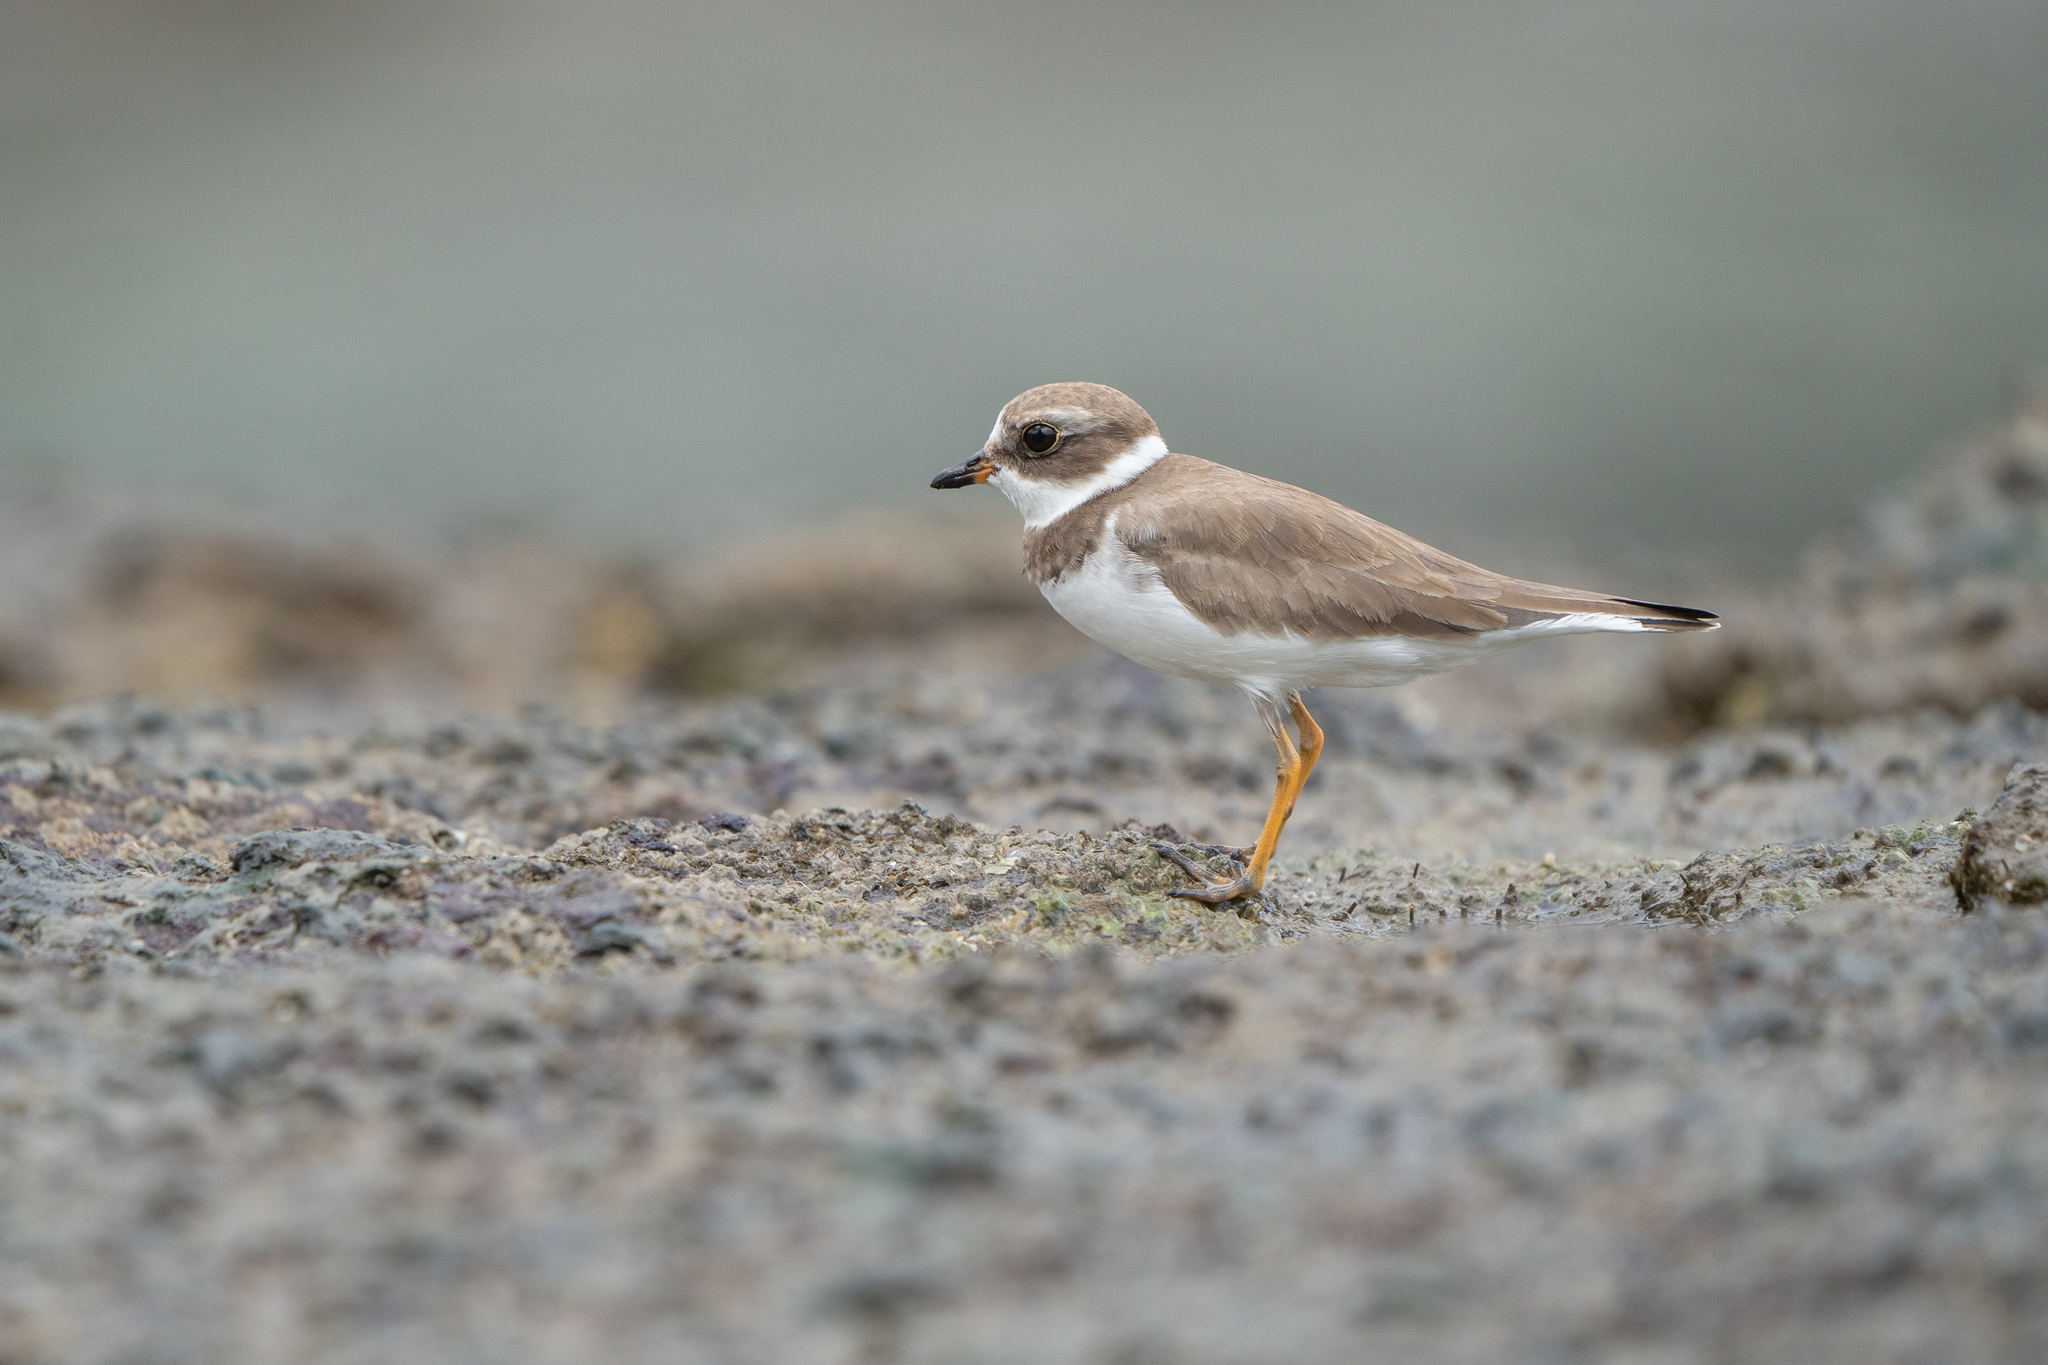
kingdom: Animalia
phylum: Chordata
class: Aves
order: Charadriiformes
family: Charadriidae
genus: Charadrius
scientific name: Charadrius semipalmatus
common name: Semipalmated plover
